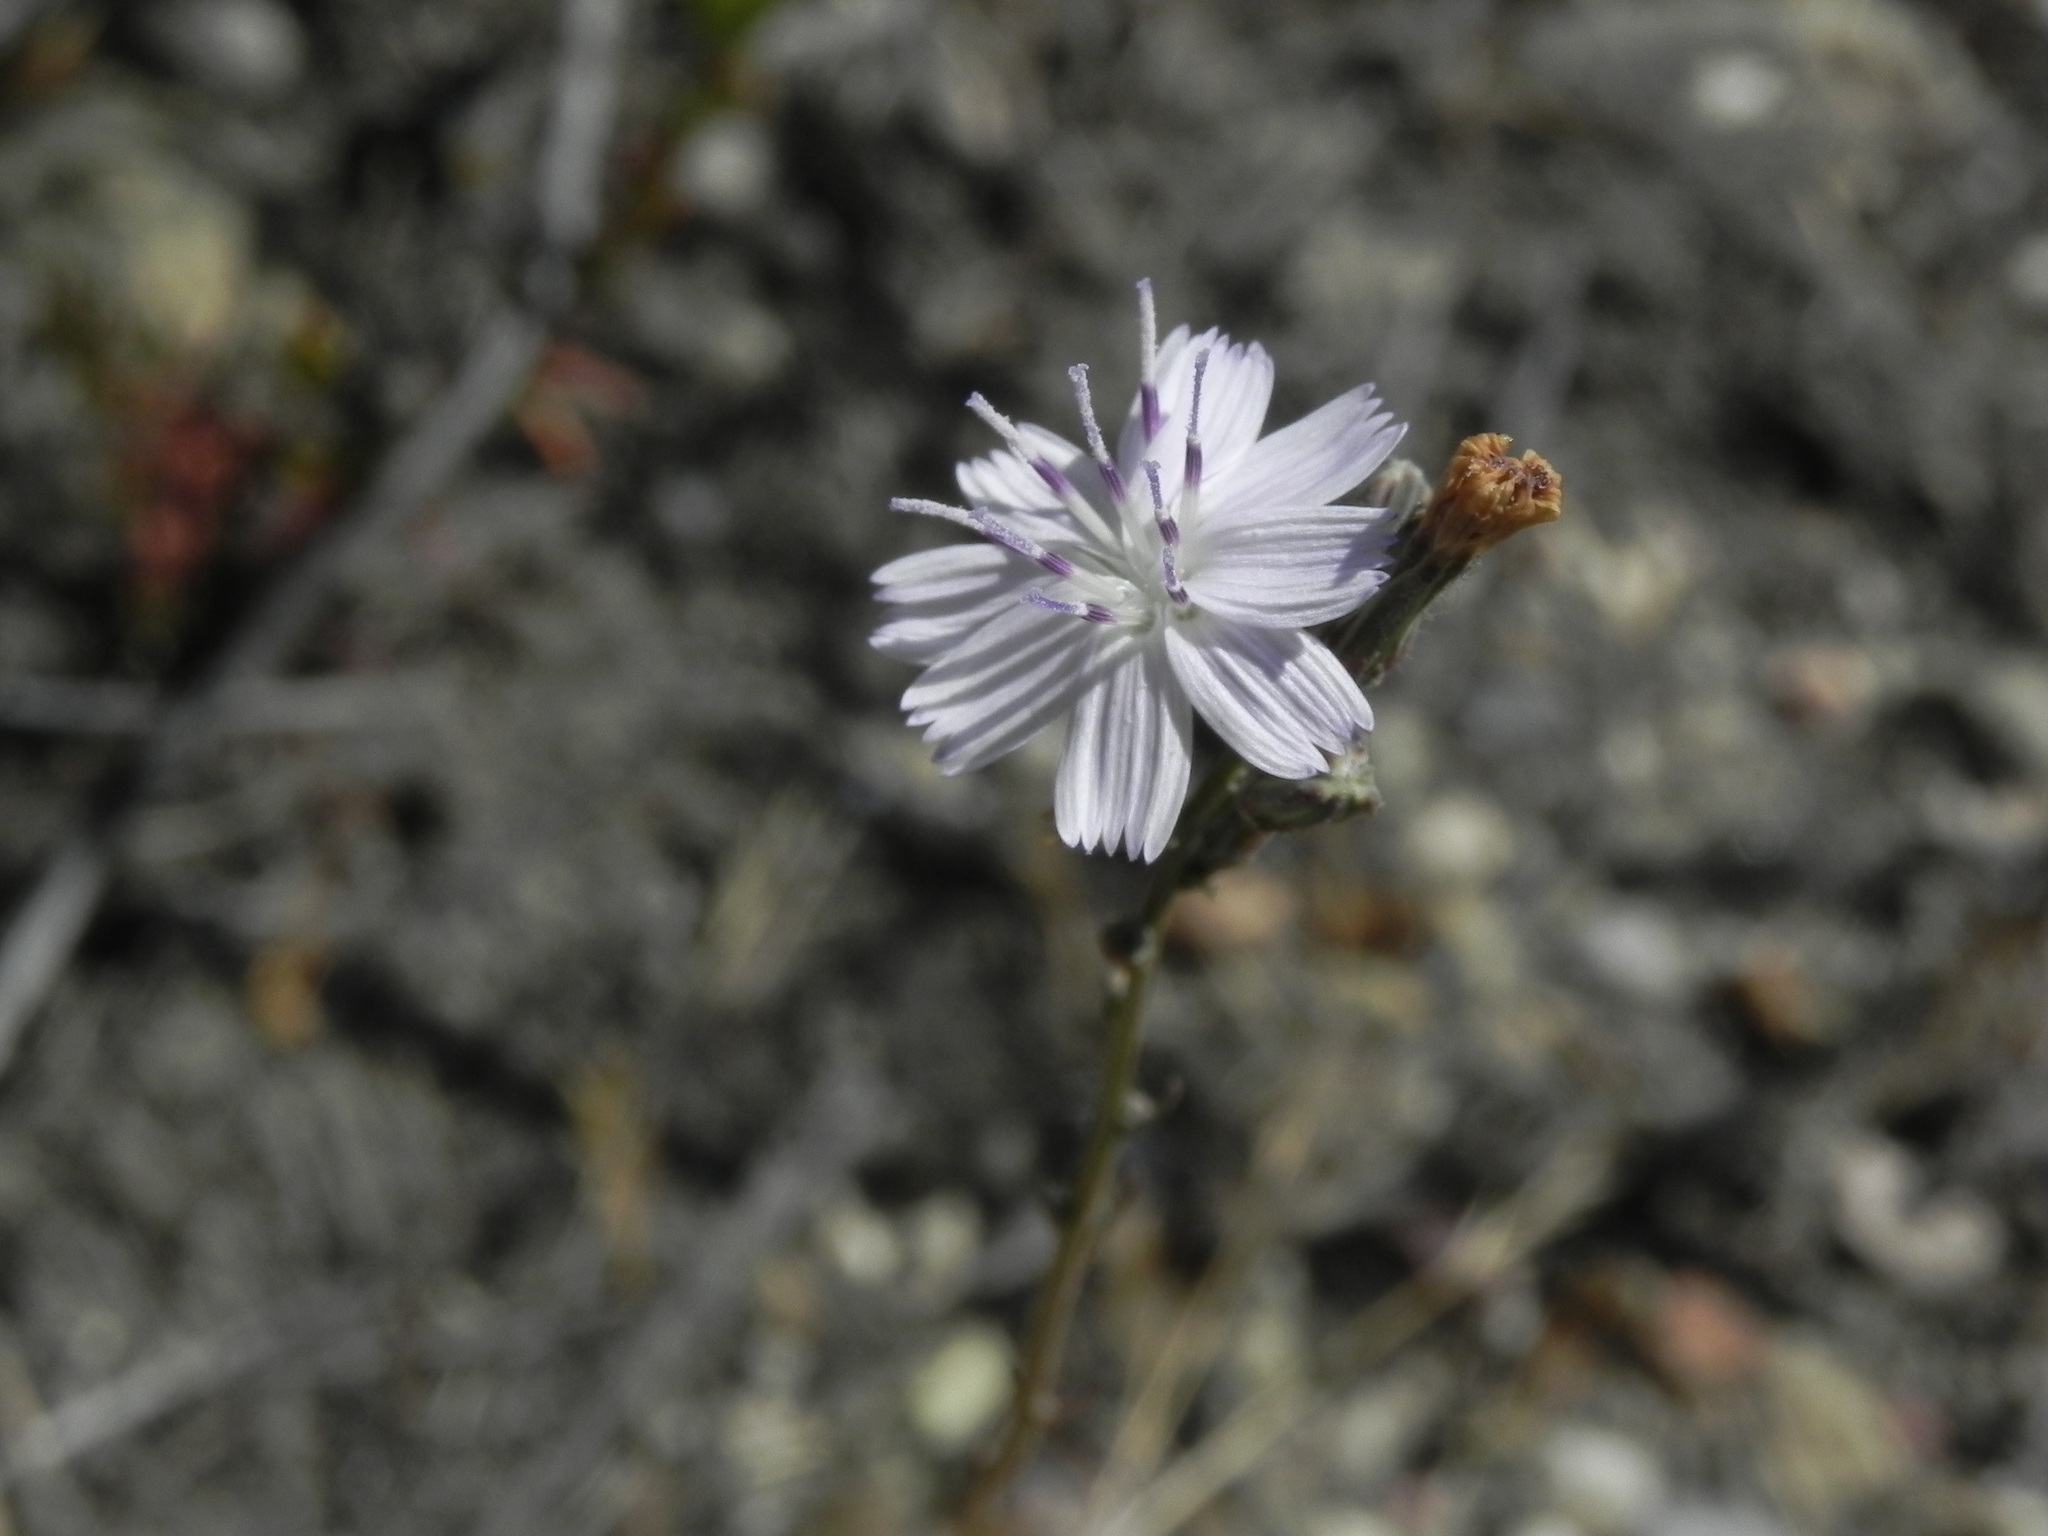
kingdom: Plantae
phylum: Tracheophyta
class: Magnoliopsida
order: Asterales
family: Asteraceae
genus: Stephanomeria
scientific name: Stephanomeria diegensis
